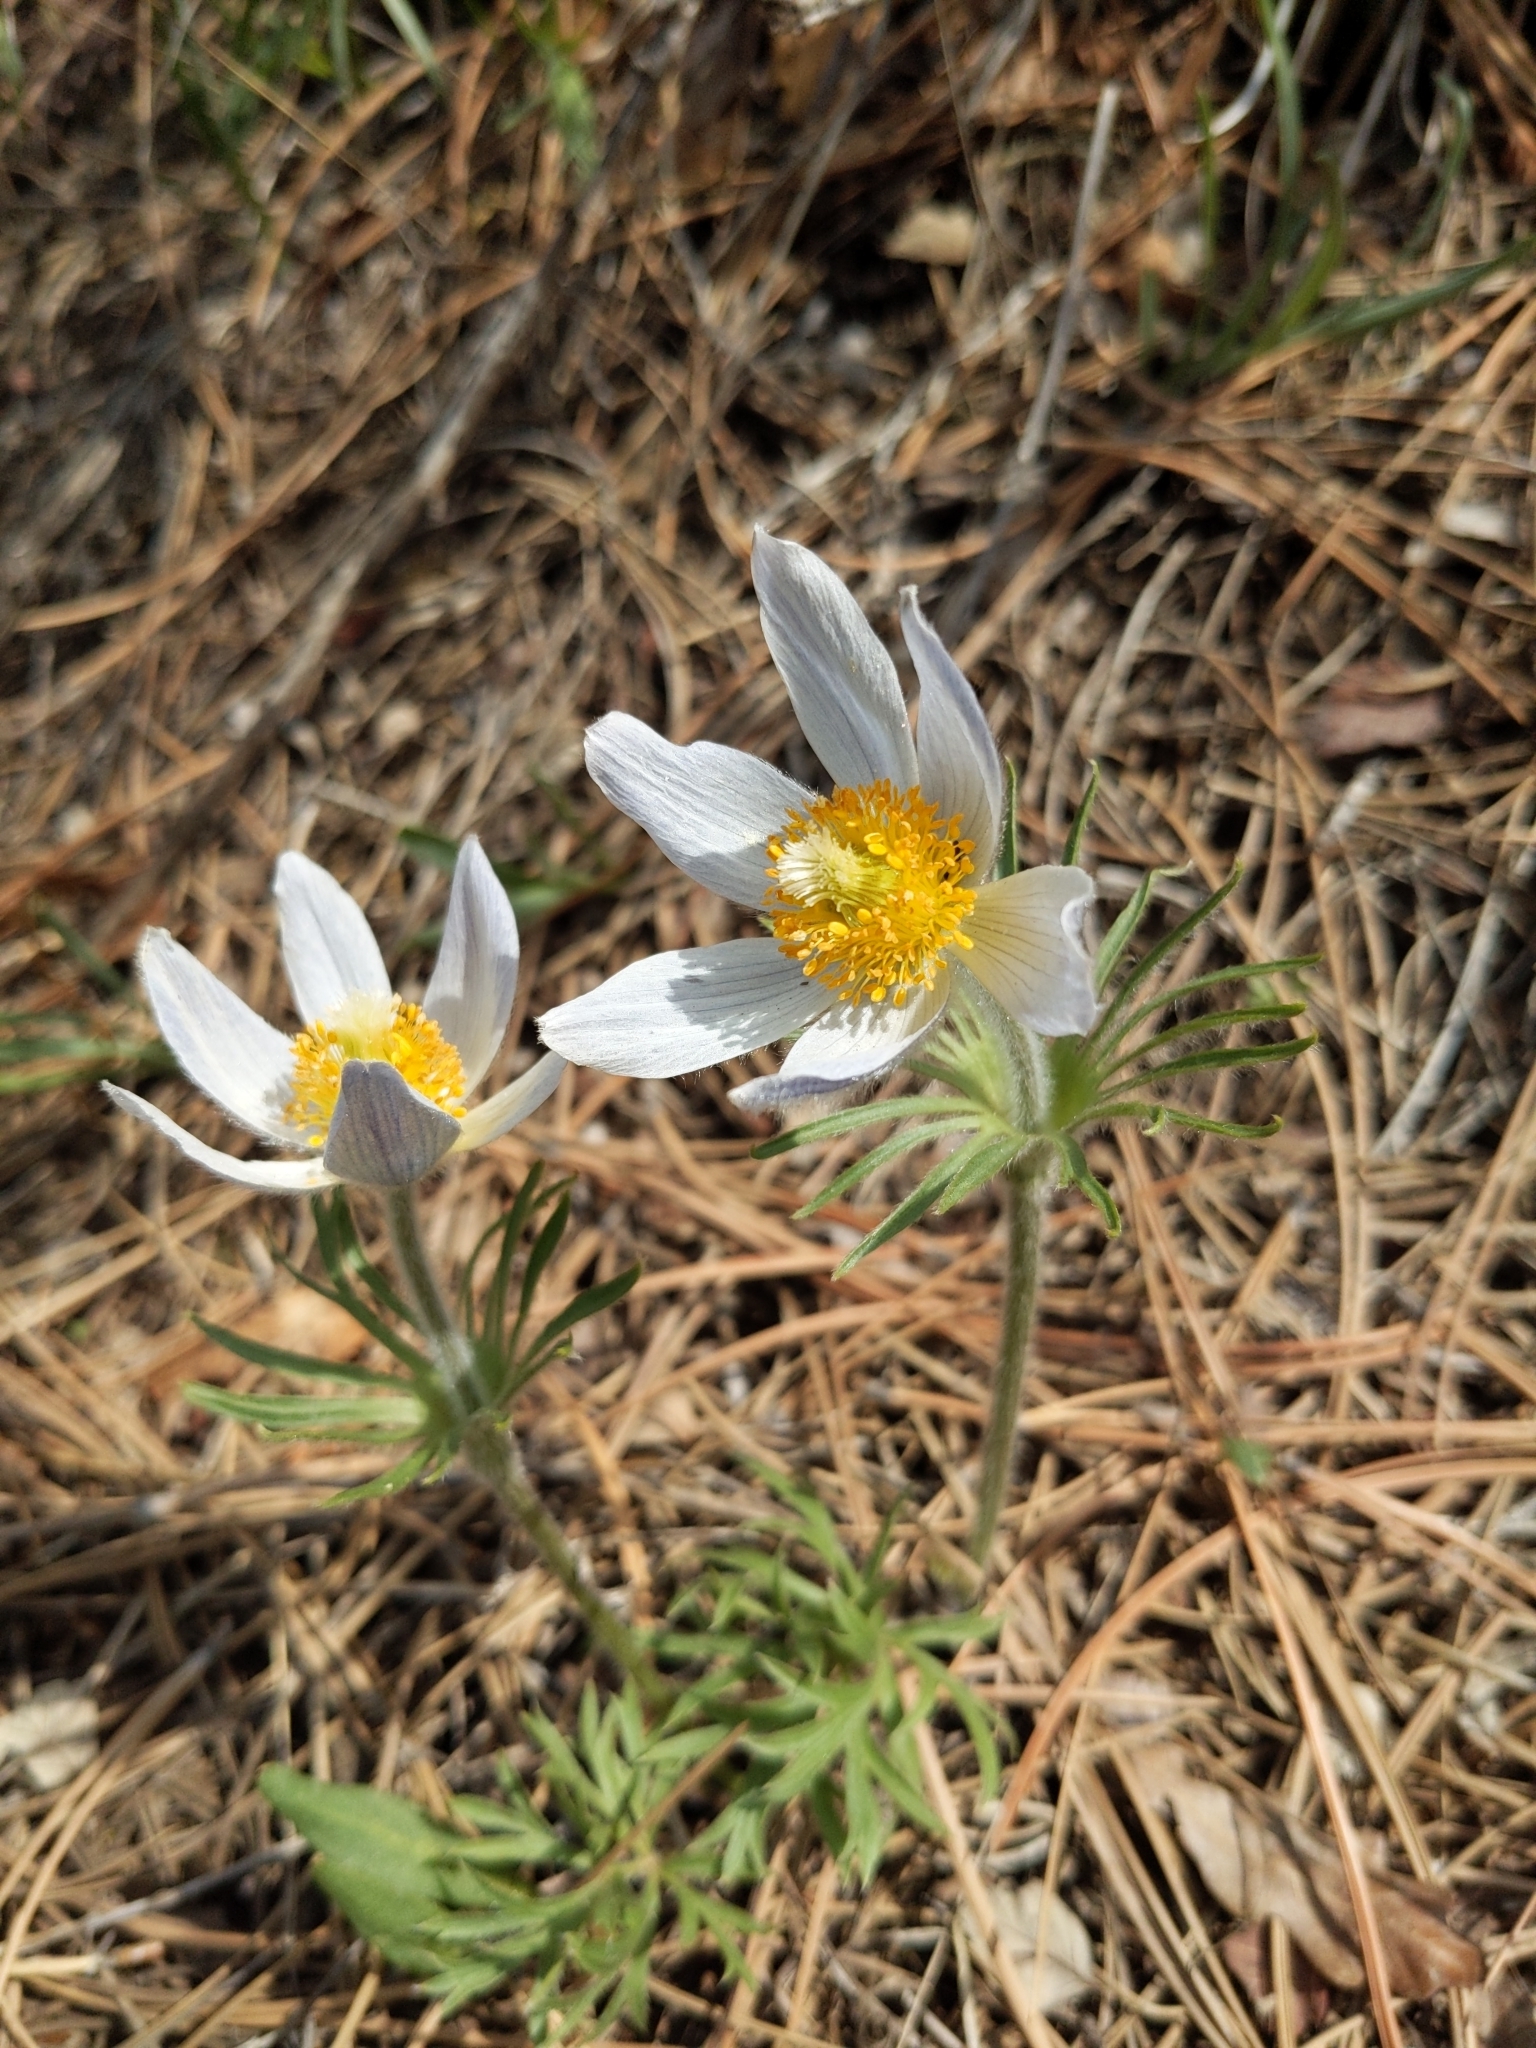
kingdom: Plantae
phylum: Tracheophyta
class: Magnoliopsida
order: Ranunculales
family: Ranunculaceae
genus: Pulsatilla
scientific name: Pulsatilla nuttalliana
